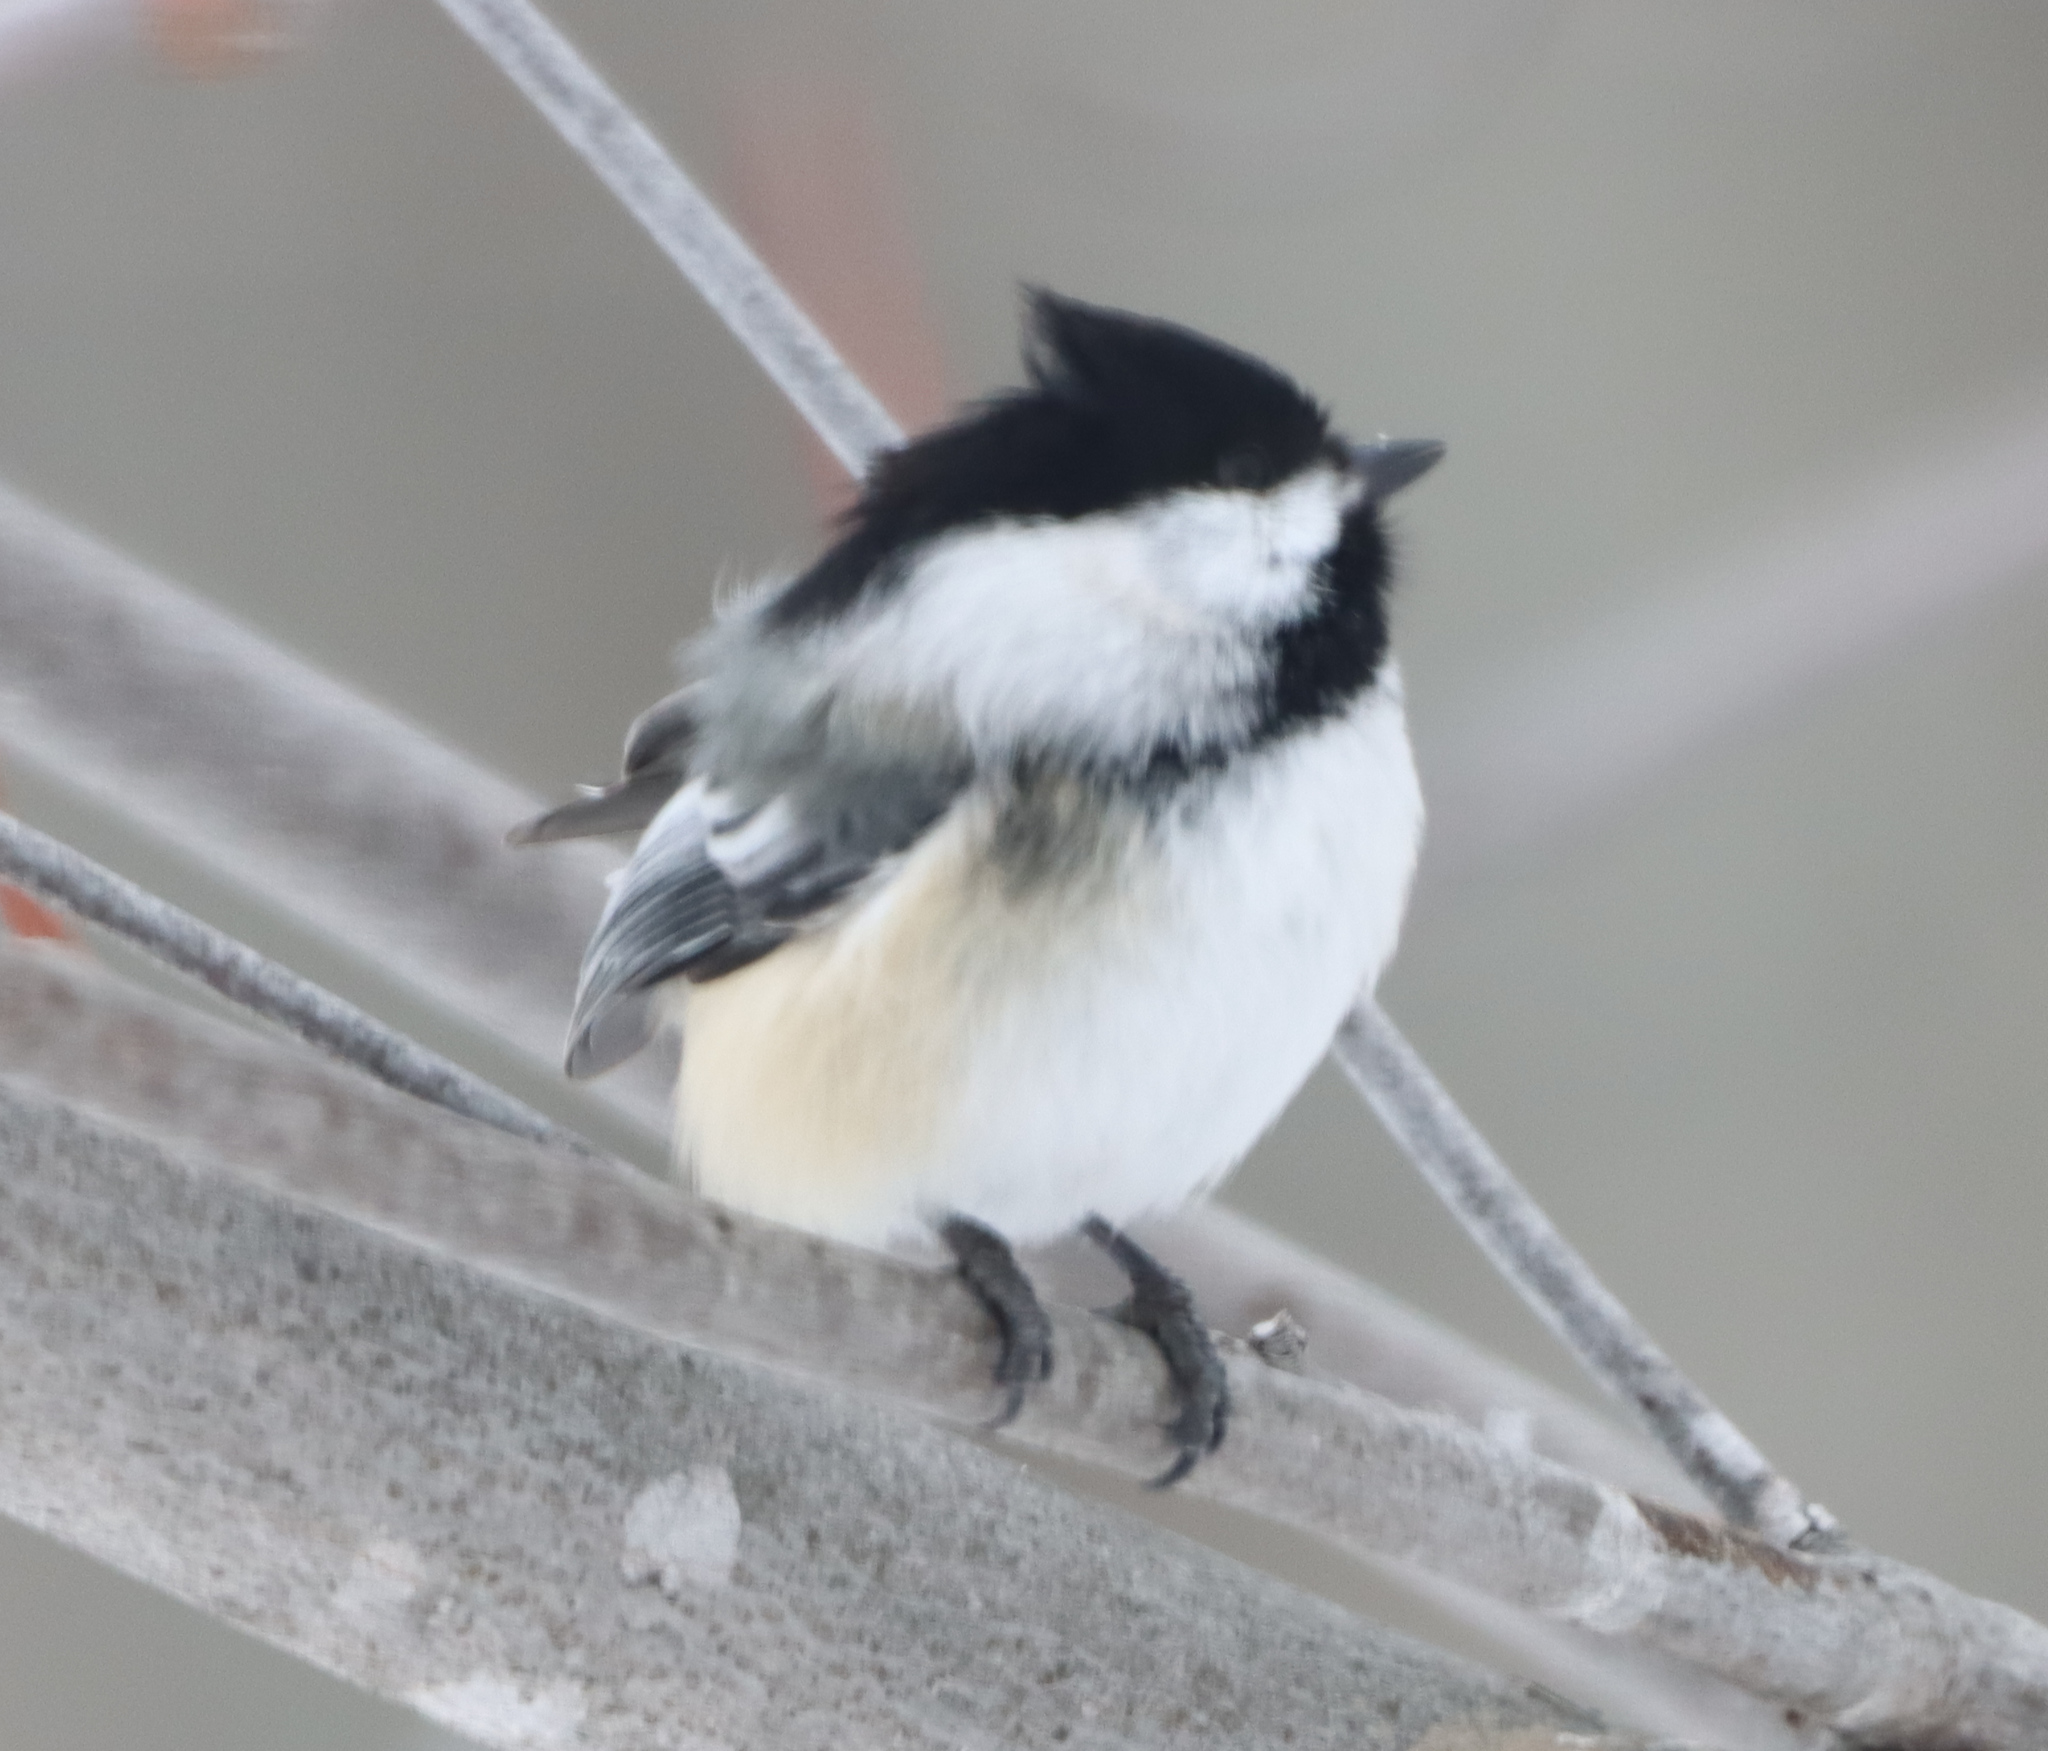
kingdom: Animalia
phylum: Chordata
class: Aves
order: Passeriformes
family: Paridae
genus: Poecile
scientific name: Poecile atricapillus
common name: Black-capped chickadee
